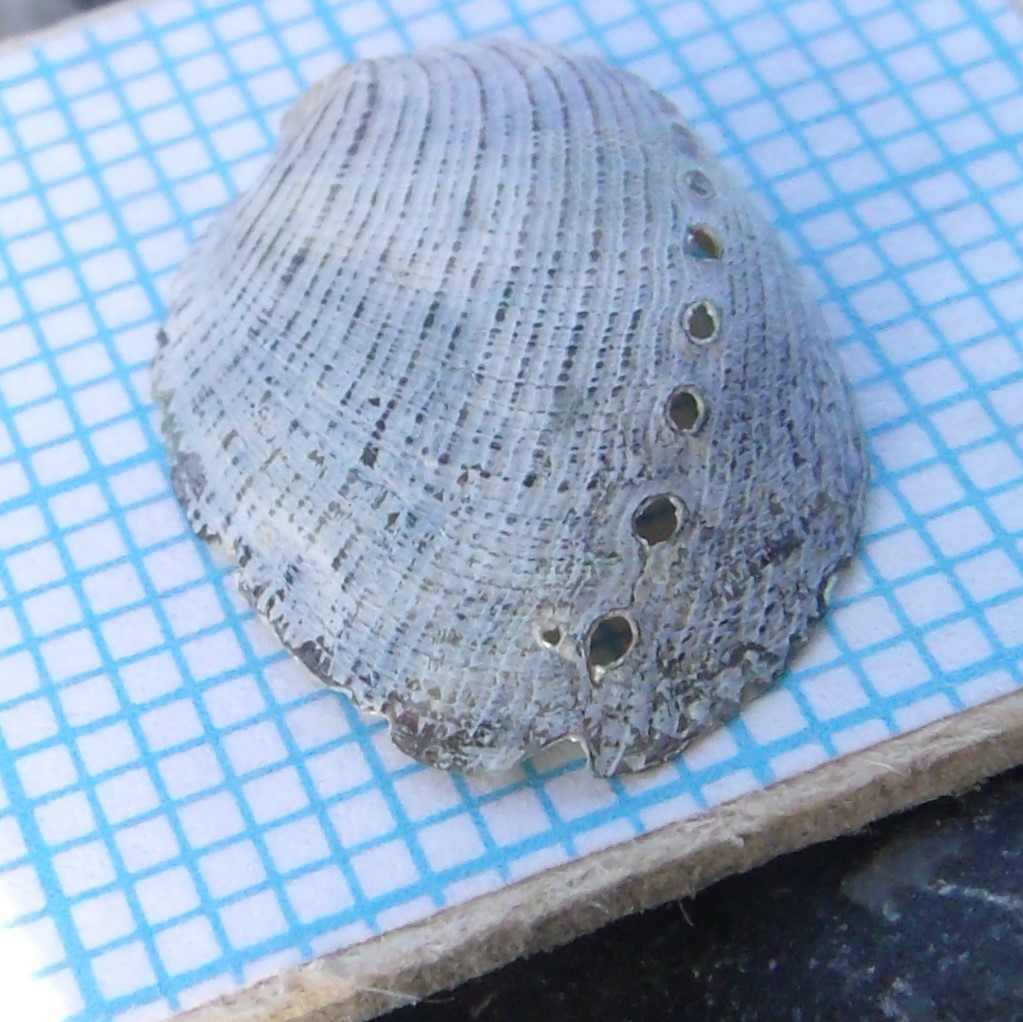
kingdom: Animalia
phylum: Mollusca
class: Gastropoda
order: Lepetellida
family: Haliotidae
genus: Haliotis
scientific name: Haliotis virginea
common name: Whitefoot paua
